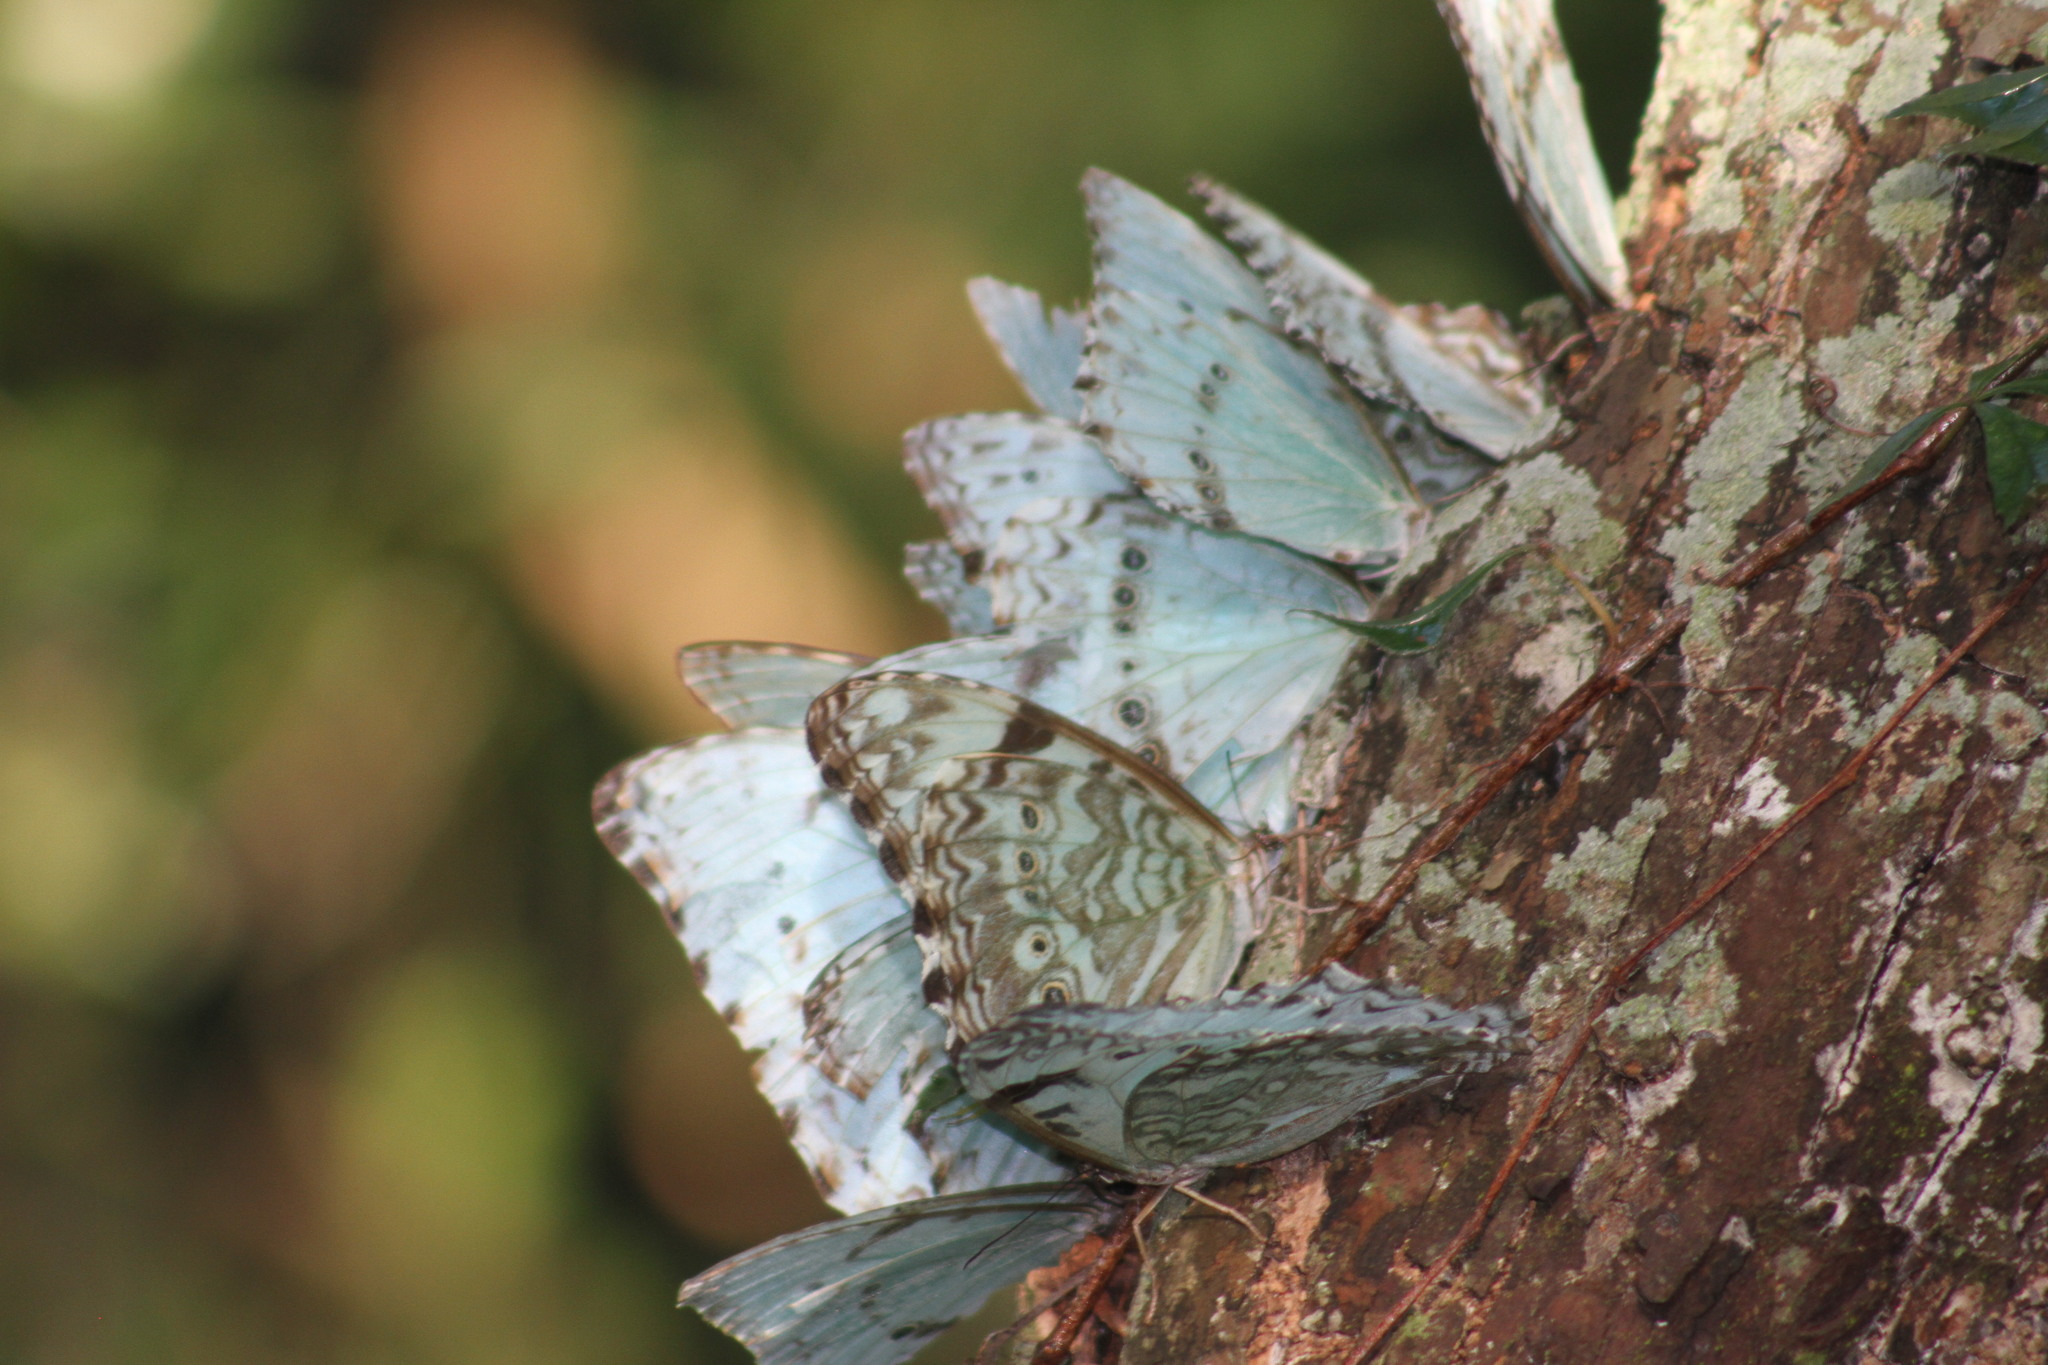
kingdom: Animalia
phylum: Arthropoda
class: Insecta
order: Lepidoptera
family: Nymphalidae
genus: Morpho
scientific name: Morpho epistrophus
